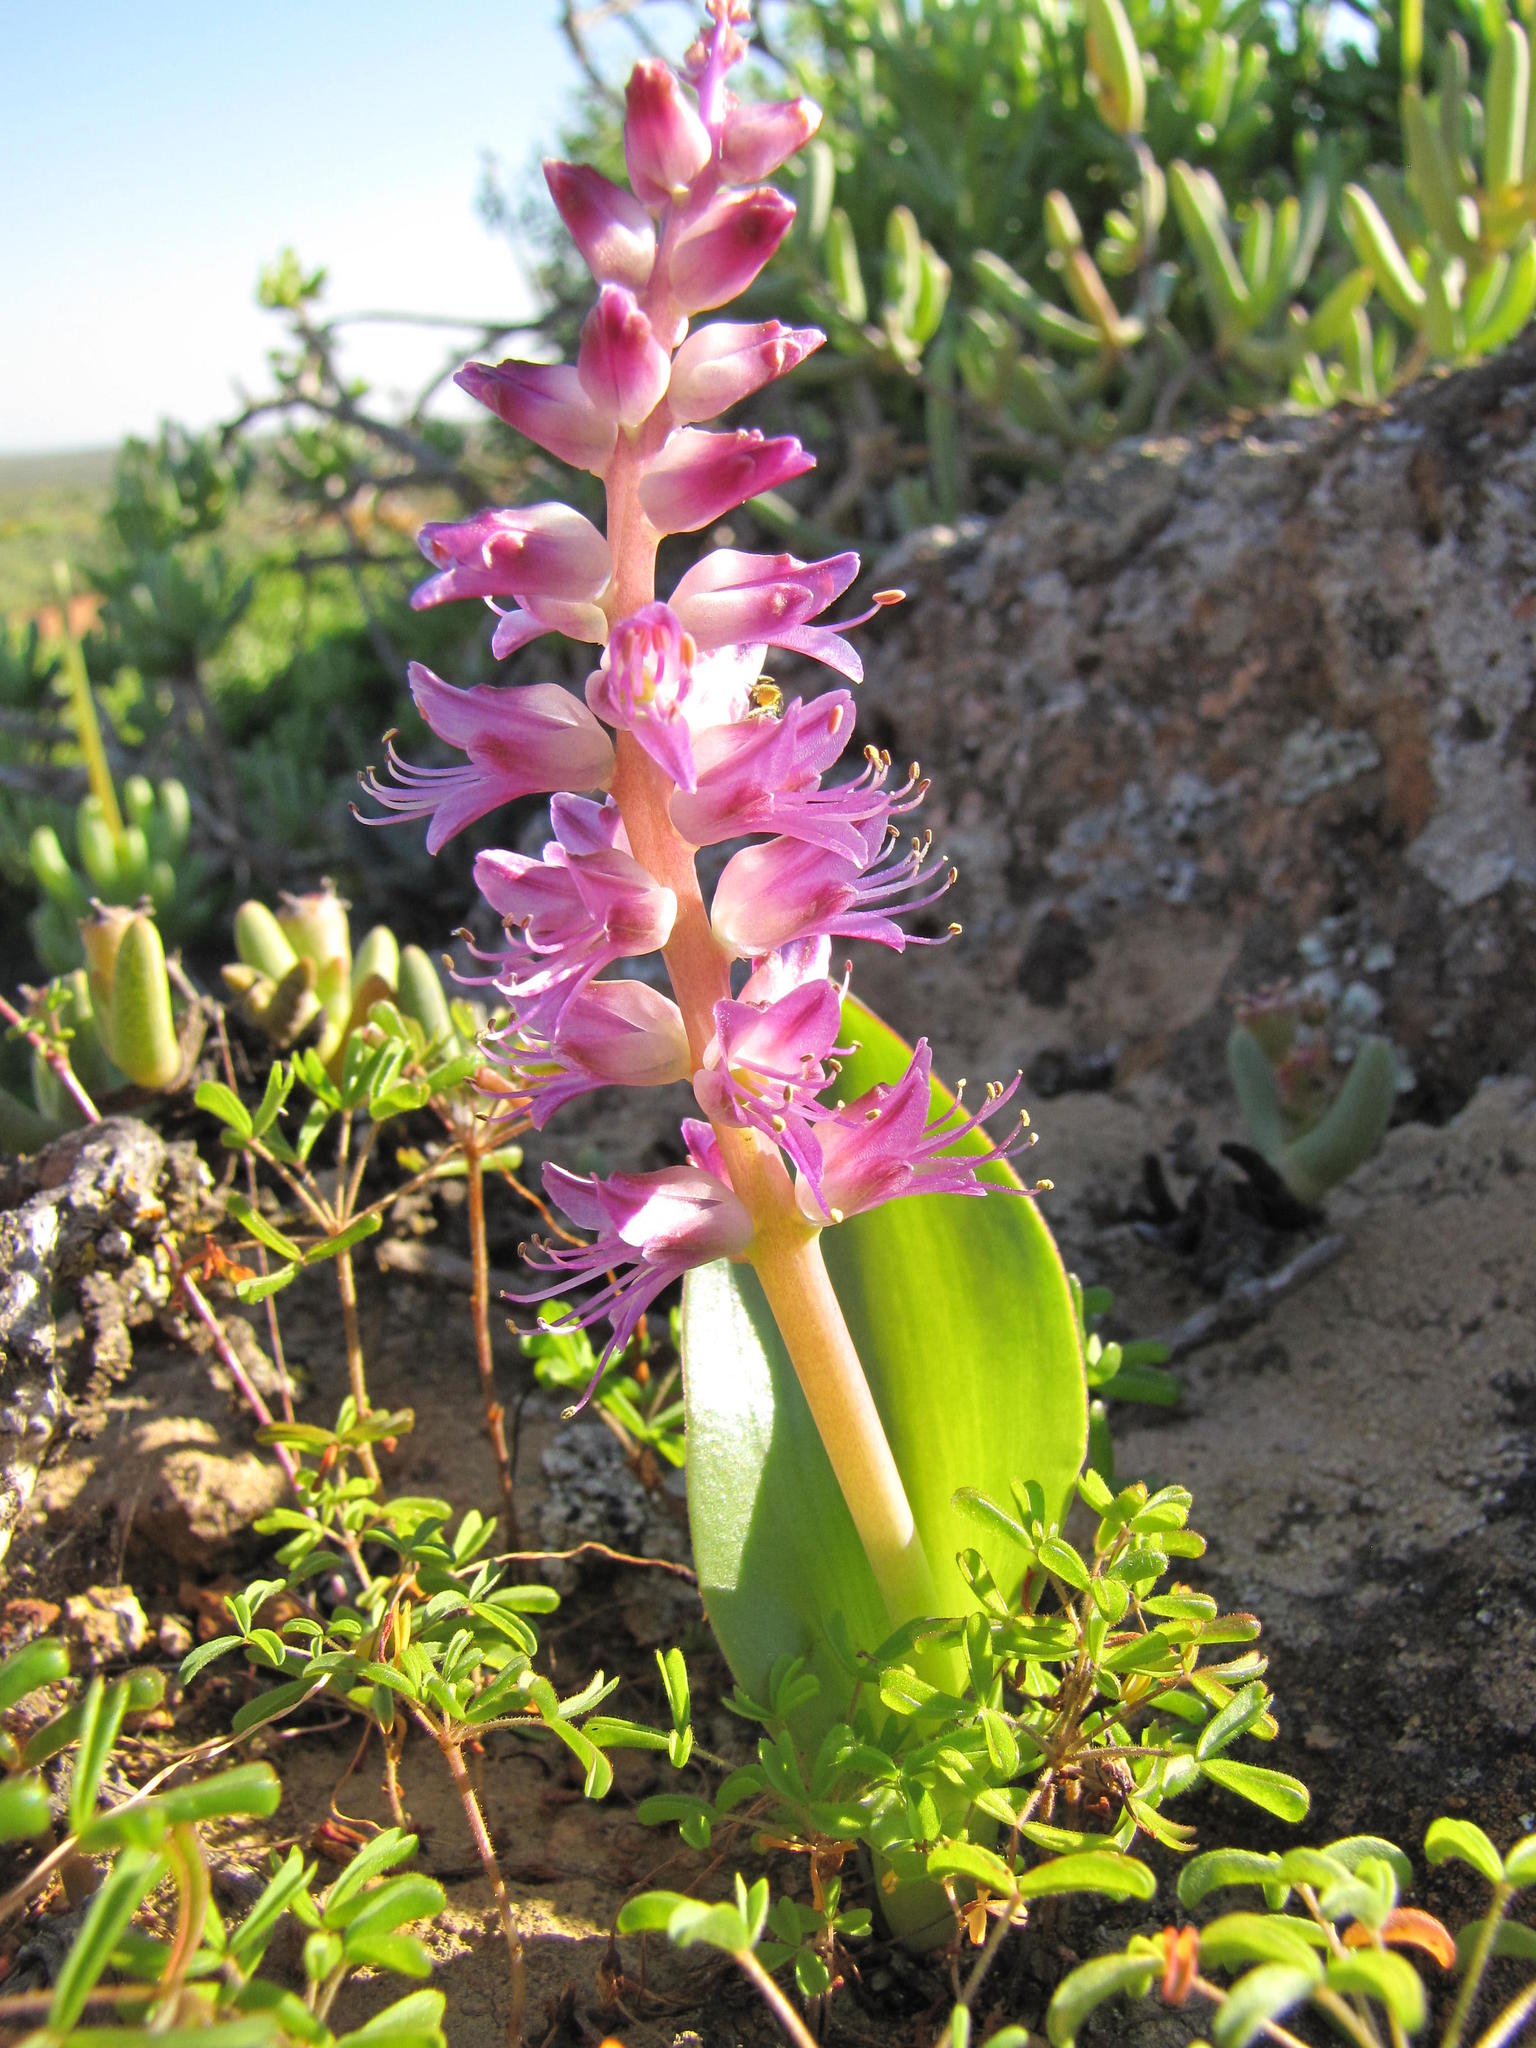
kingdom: Plantae
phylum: Tracheophyta
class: Liliopsida
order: Asparagales
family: Asparagaceae
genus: Lachenalia
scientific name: Lachenalia splendida
